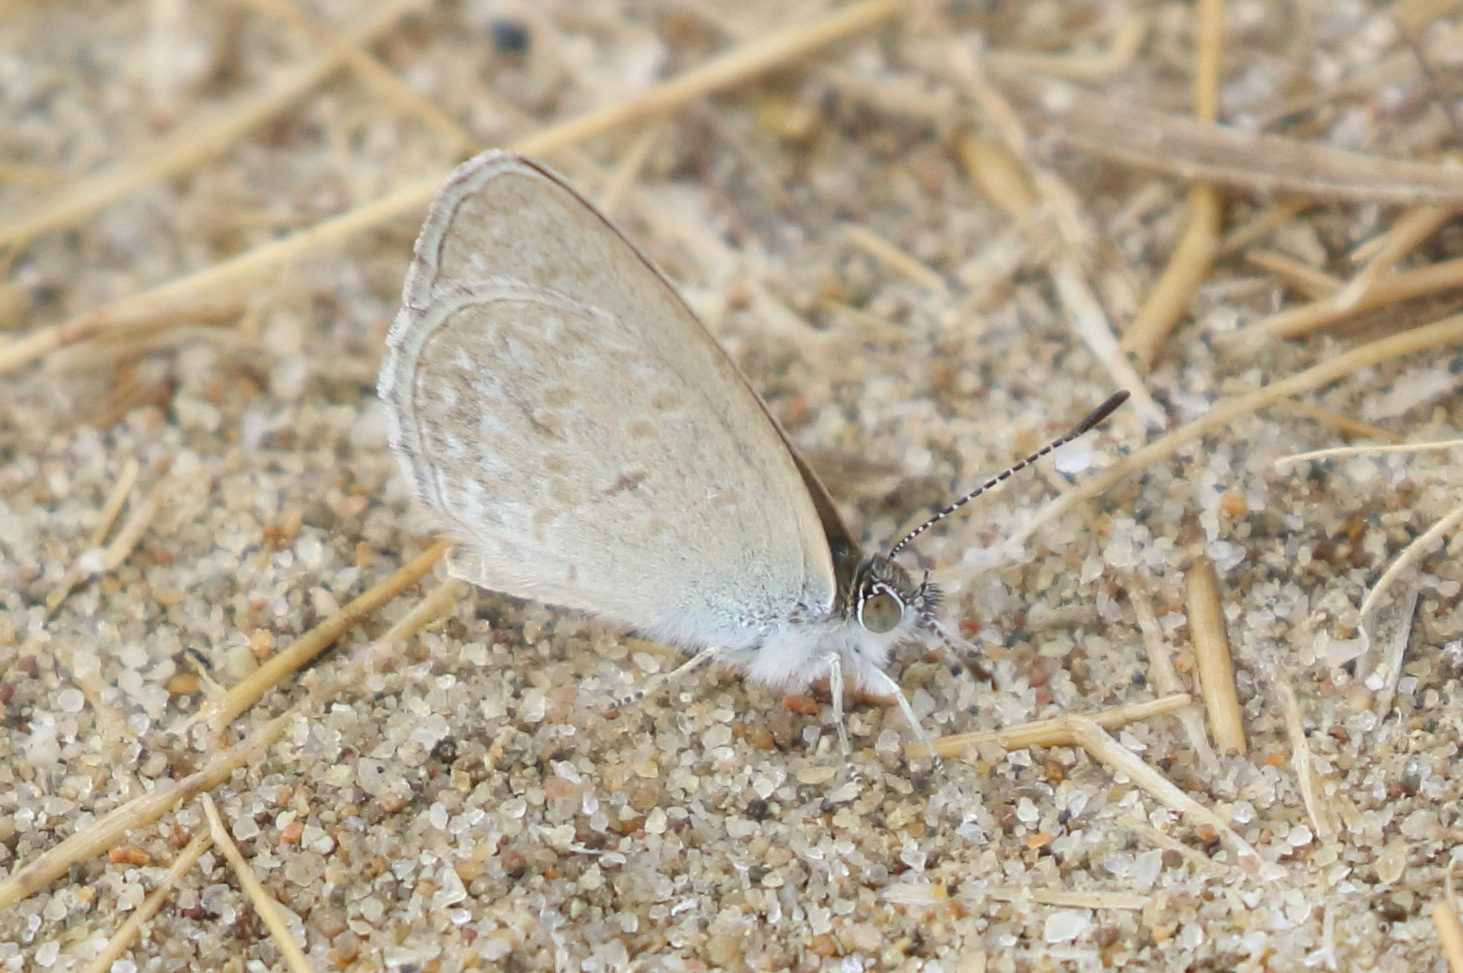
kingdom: Animalia
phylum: Arthropoda
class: Insecta
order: Lepidoptera
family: Lycaenidae
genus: Zizina
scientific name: Zizina otis
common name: Lesser grass blue
